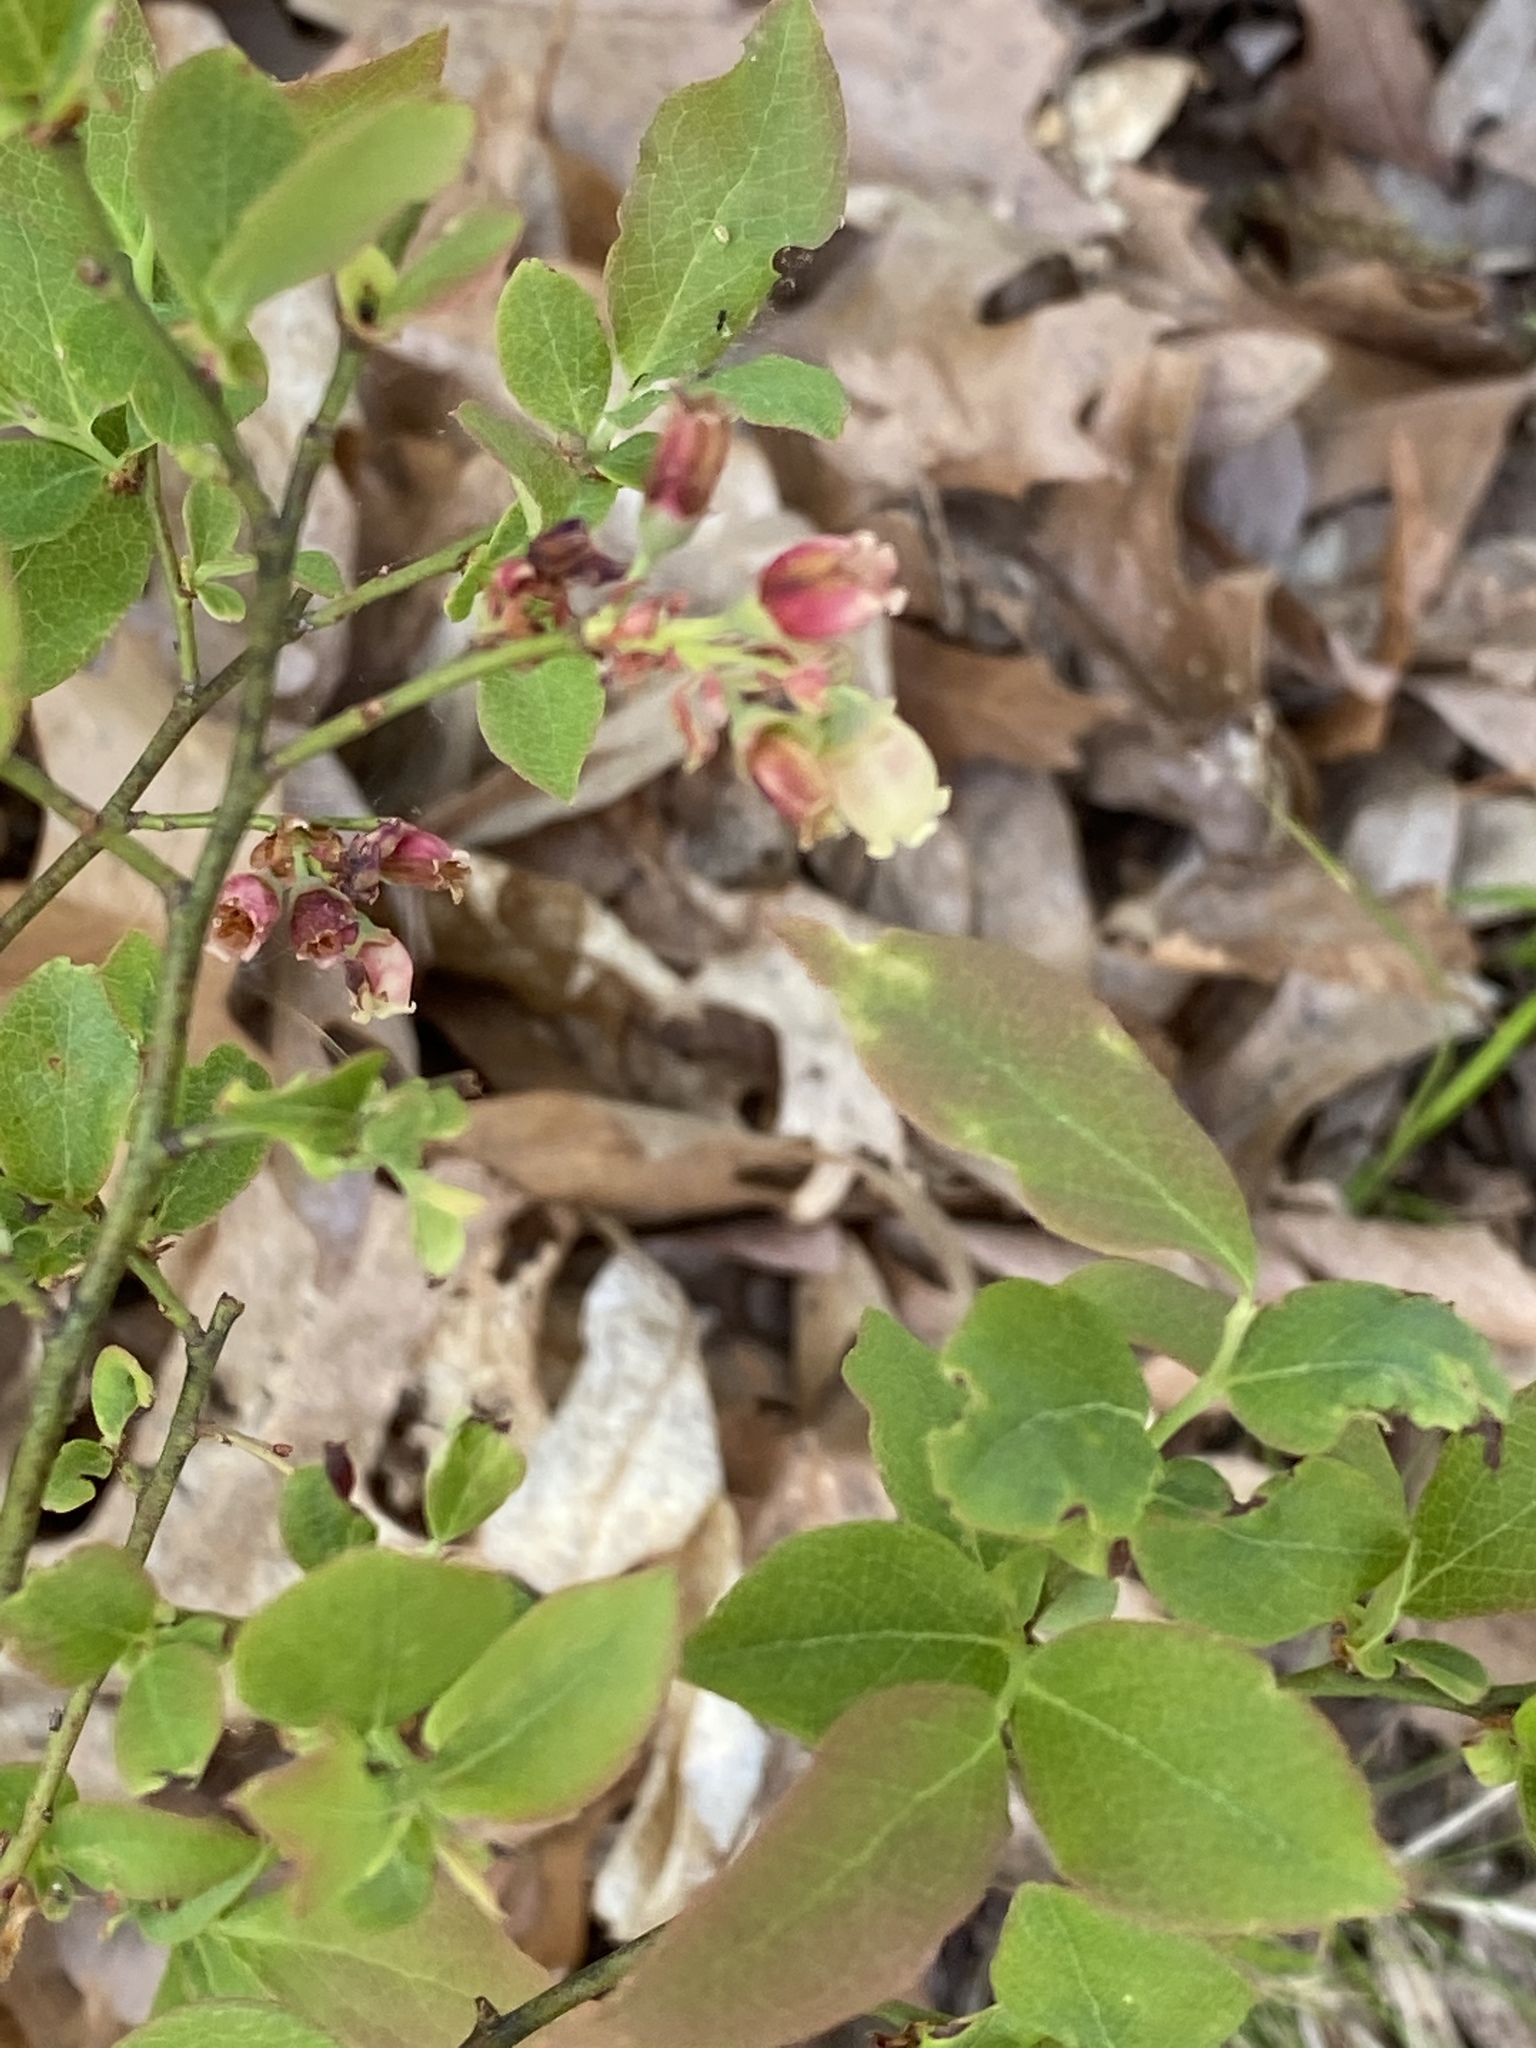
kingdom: Plantae
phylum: Tracheophyta
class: Magnoliopsida
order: Ericales
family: Ericaceae
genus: Gaylussacia
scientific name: Gaylussacia baccata
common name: Black huckleberry
